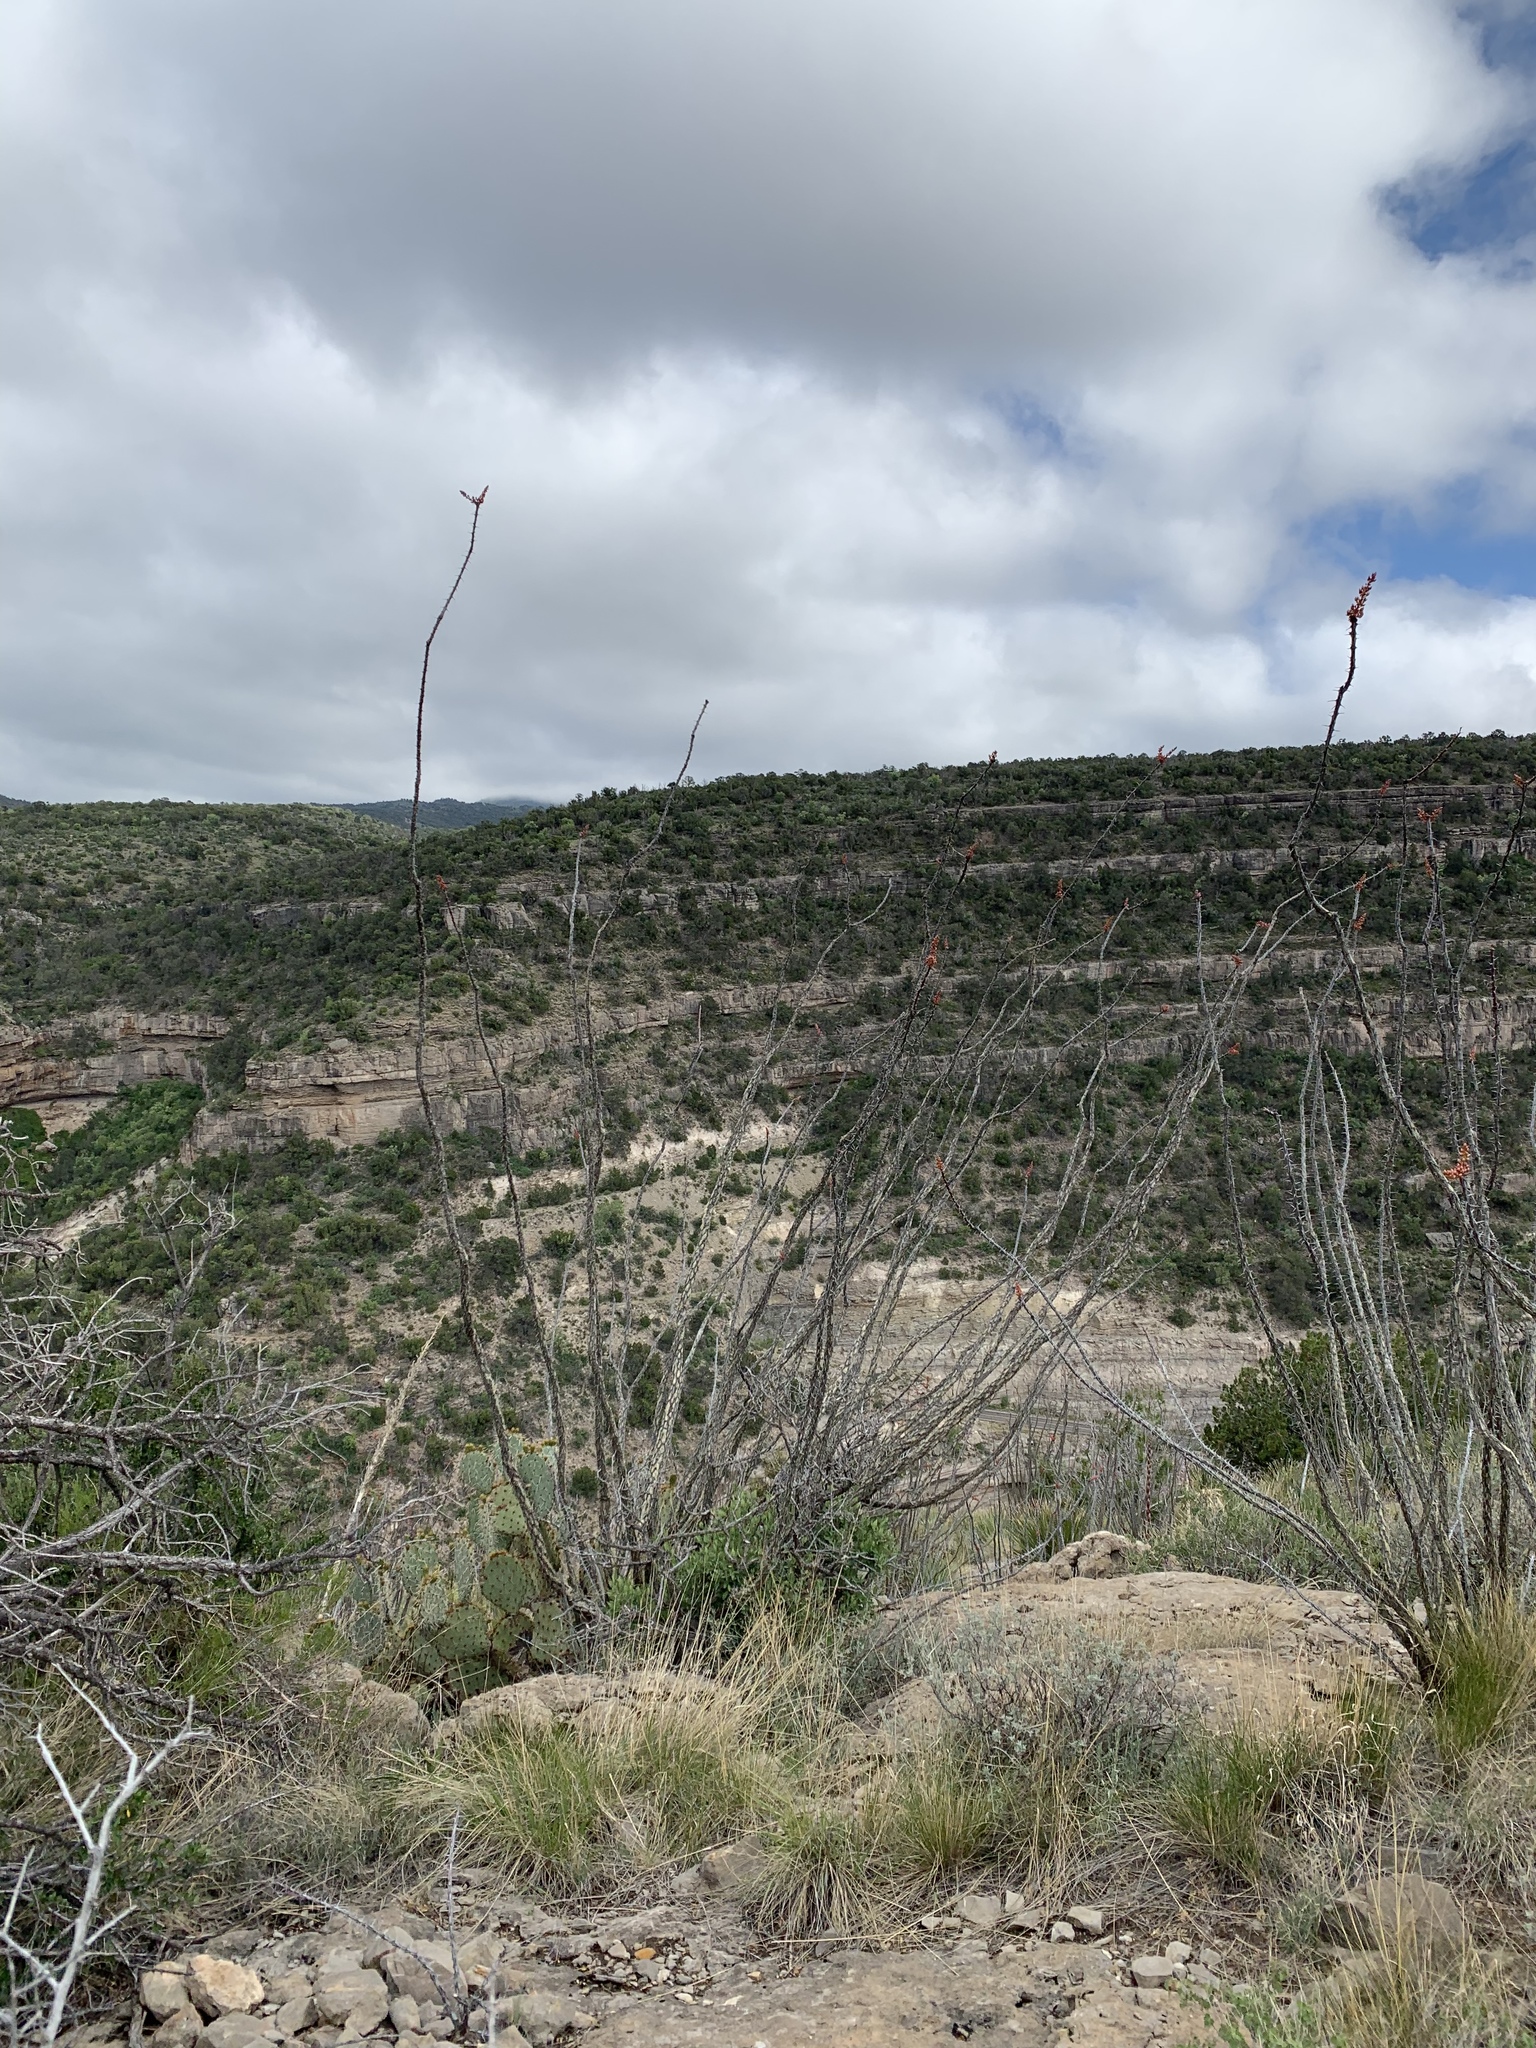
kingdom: Plantae
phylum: Tracheophyta
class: Magnoliopsida
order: Ericales
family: Fouquieriaceae
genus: Fouquieria
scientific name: Fouquieria splendens
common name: Vine-cactus
